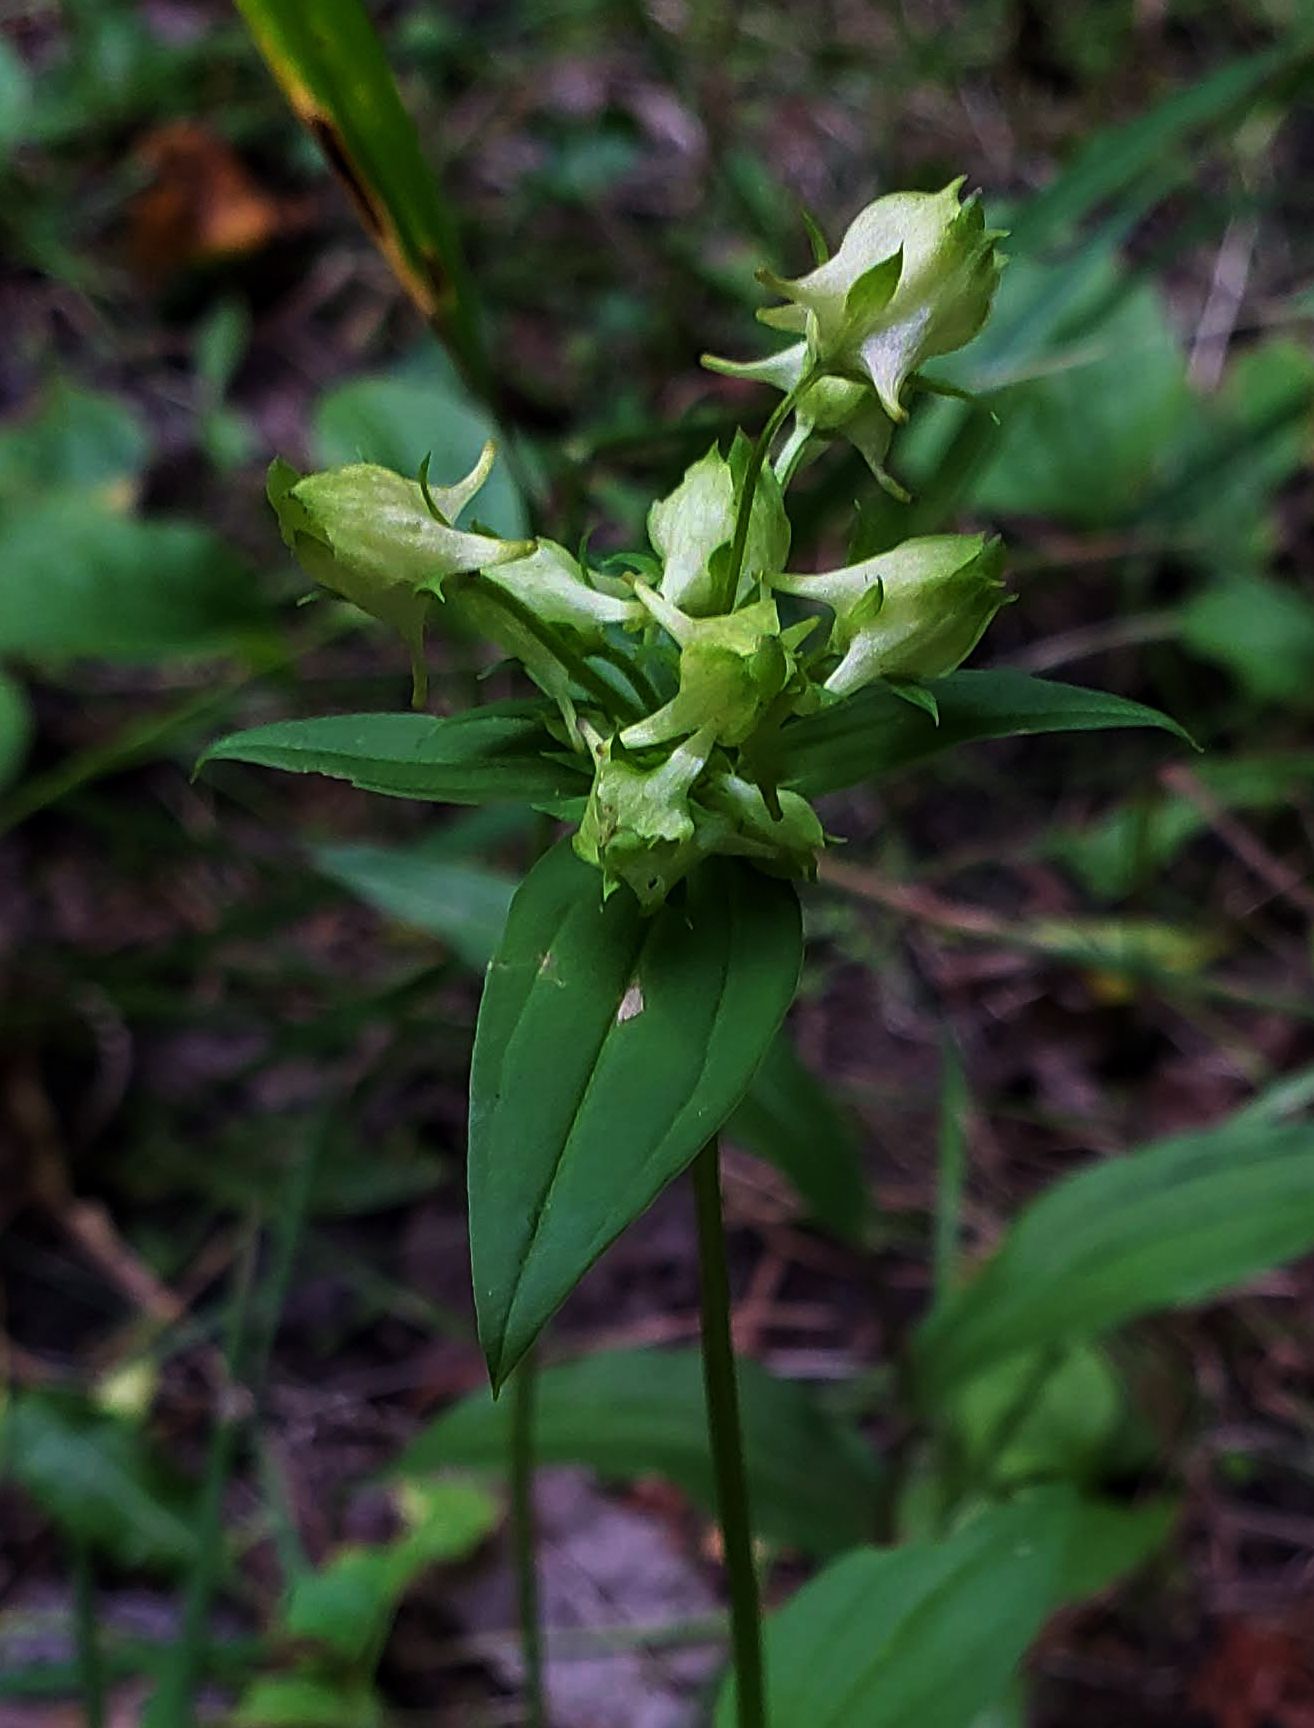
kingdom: Plantae
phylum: Tracheophyta
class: Magnoliopsida
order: Gentianales
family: Gentianaceae
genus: Halenia
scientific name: Halenia deflexa
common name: American spurred gentian
